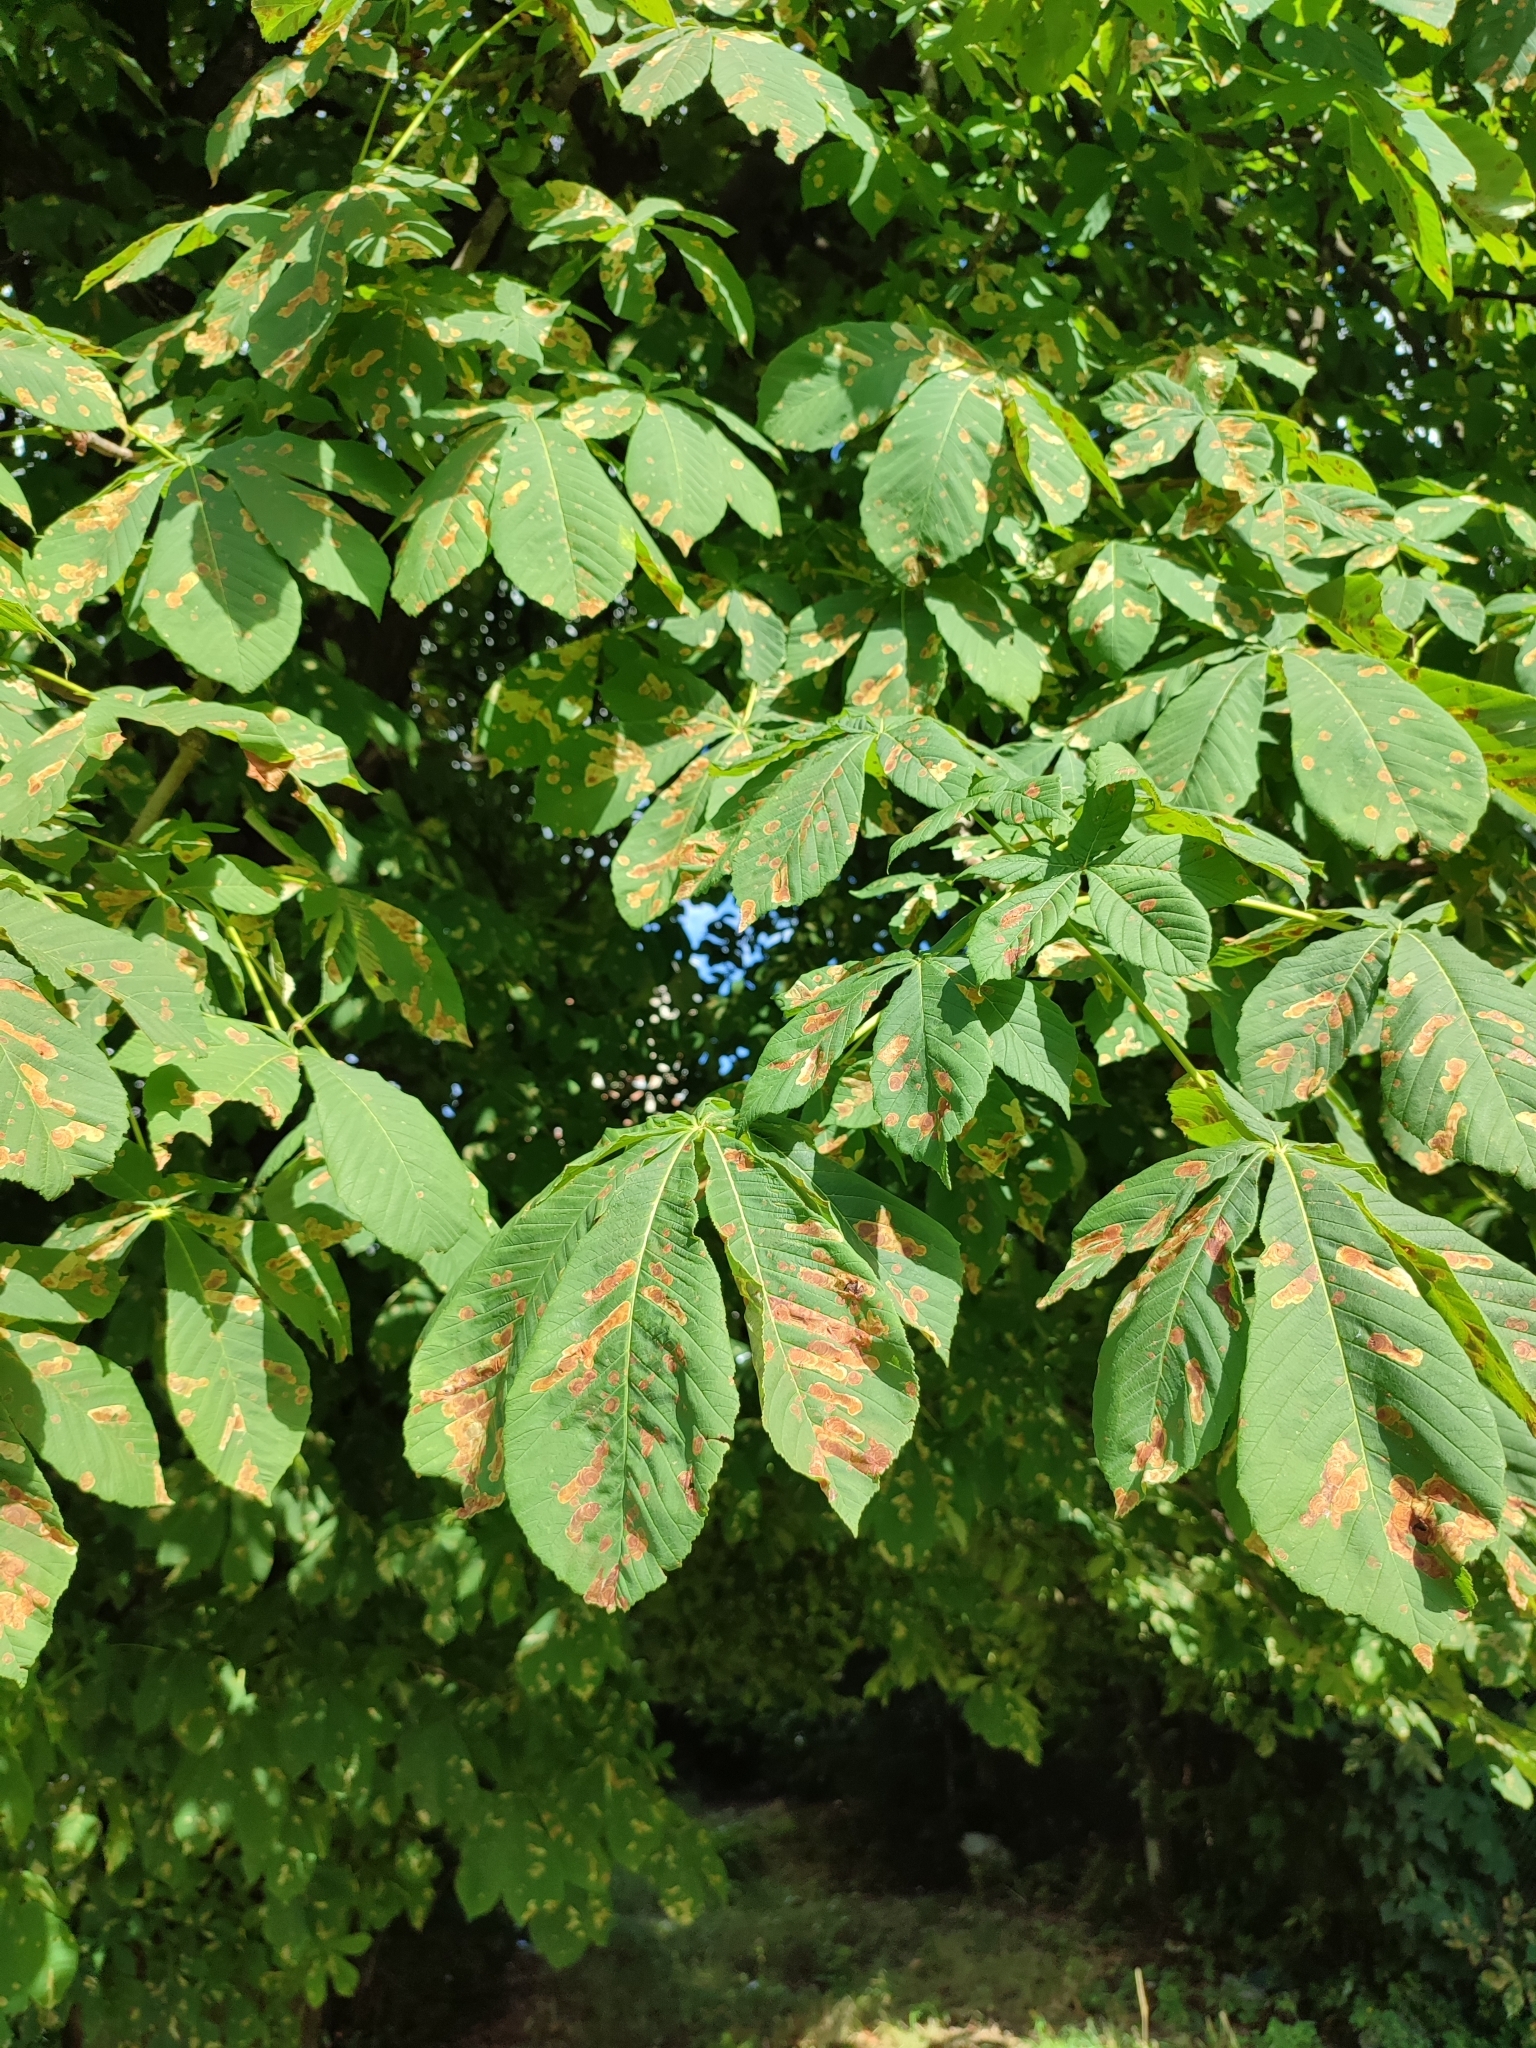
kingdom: Animalia
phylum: Arthropoda
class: Insecta
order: Lepidoptera
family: Gracillariidae
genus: Cameraria
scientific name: Cameraria ohridella
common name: Horse-chestnut leaf-miner
